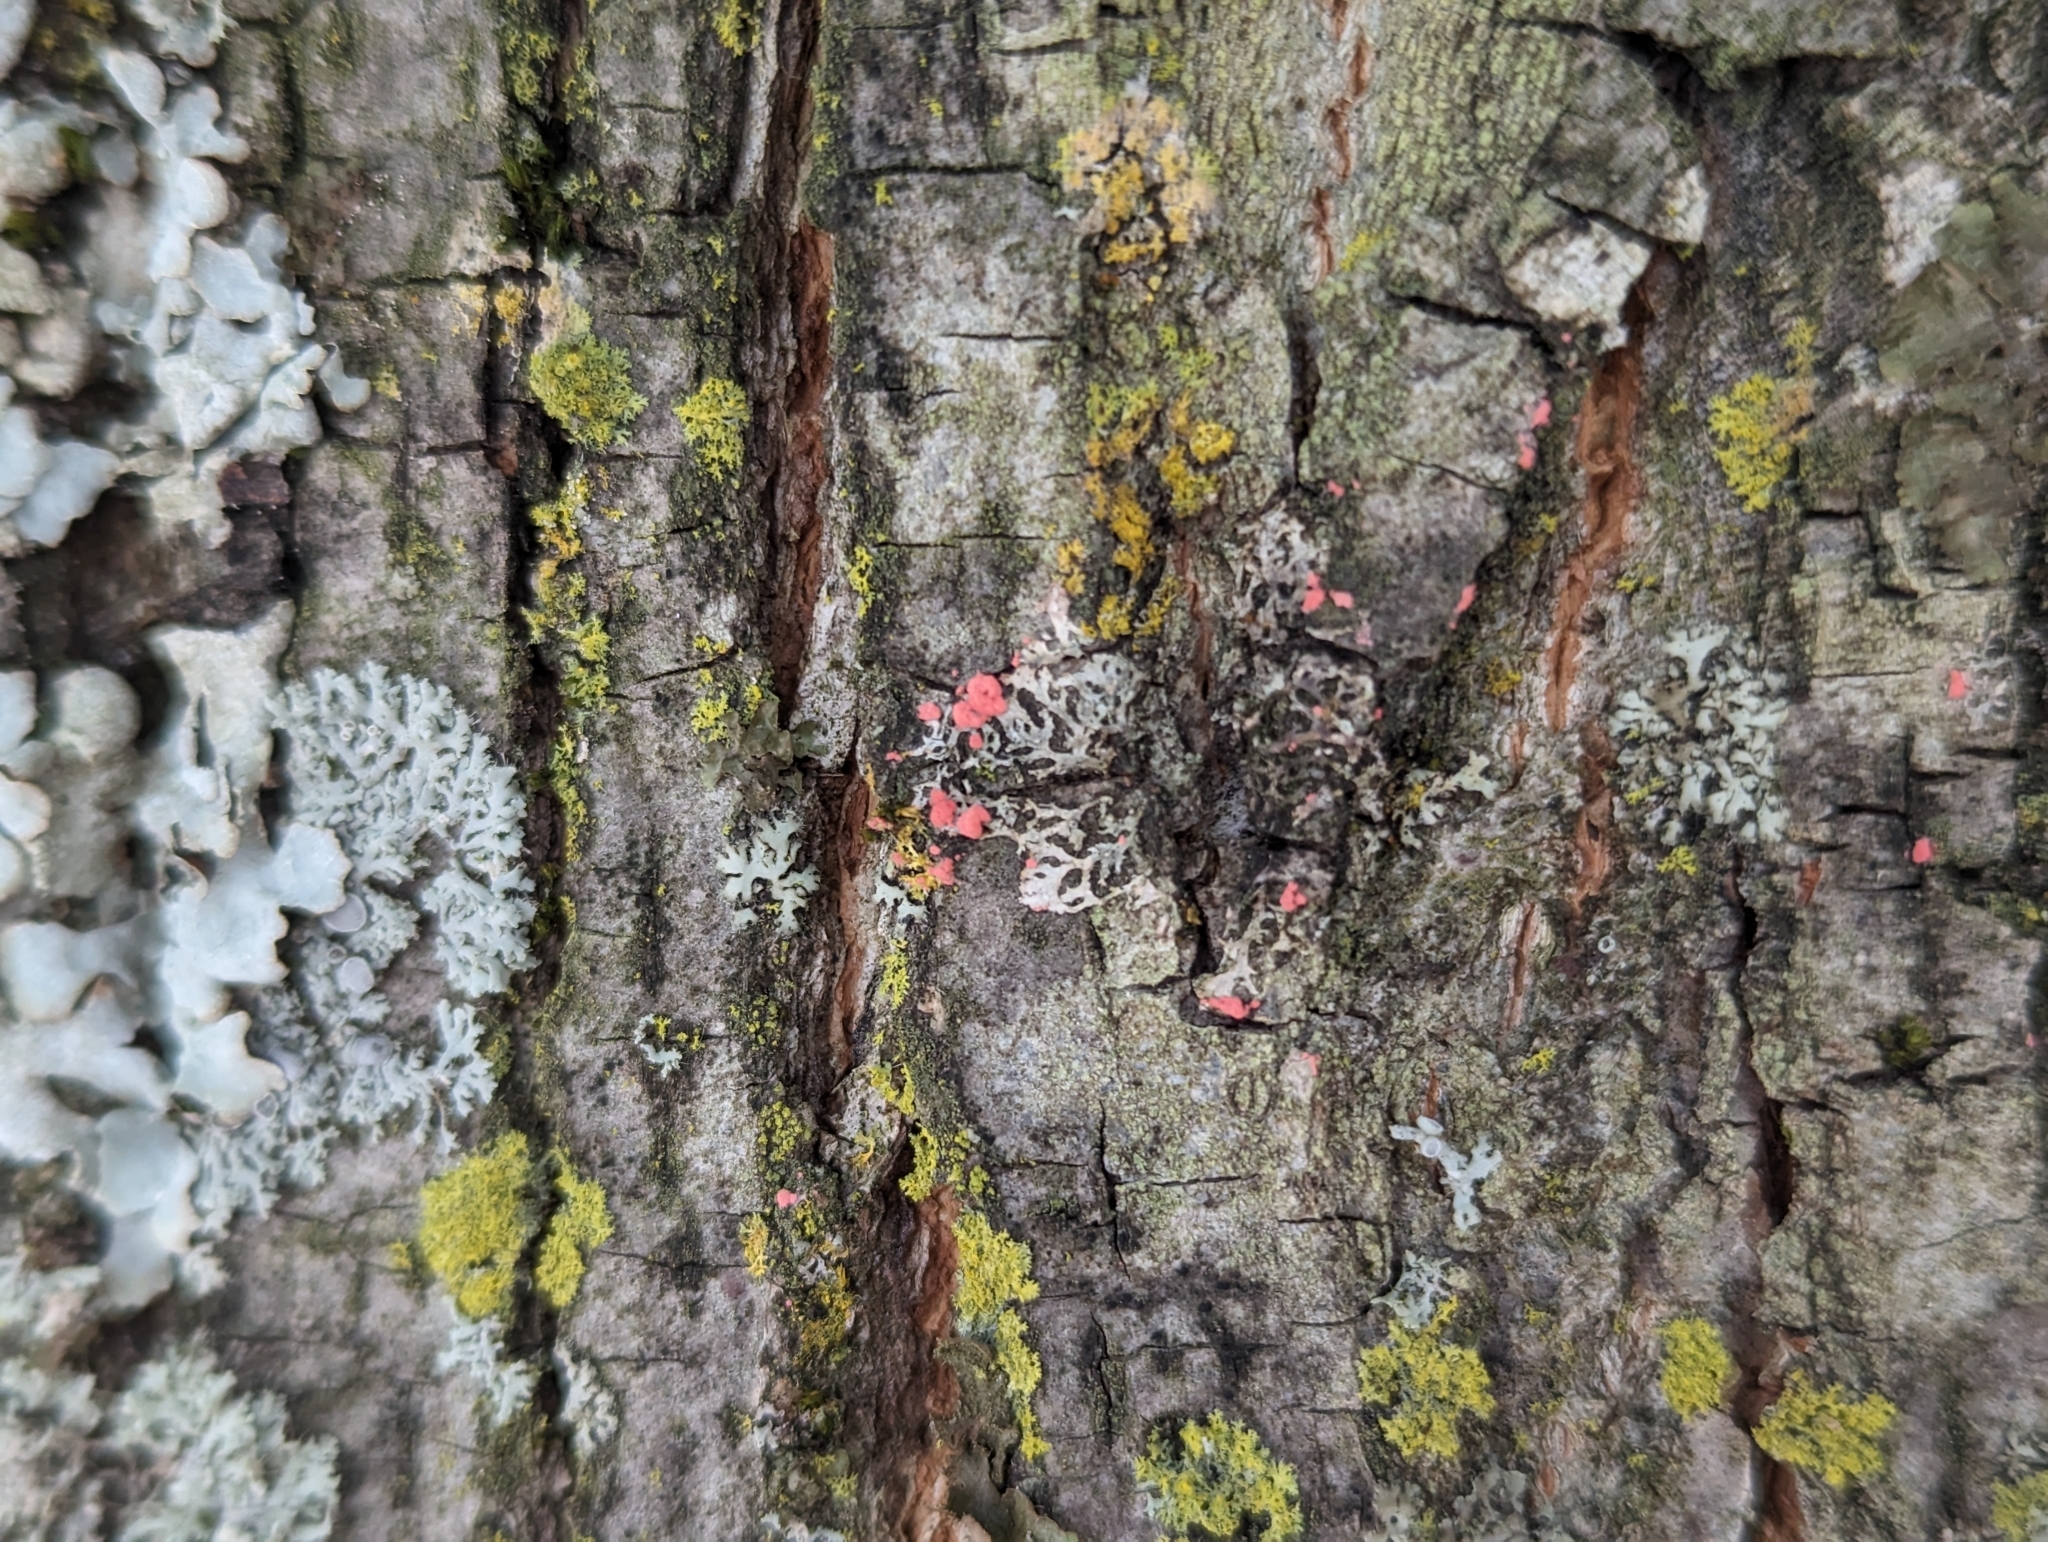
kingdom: Fungi
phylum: Ascomycota
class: Sordariomycetes
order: Hypocreales
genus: Illosporiopsis
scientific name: Illosporiopsis christiansenii
